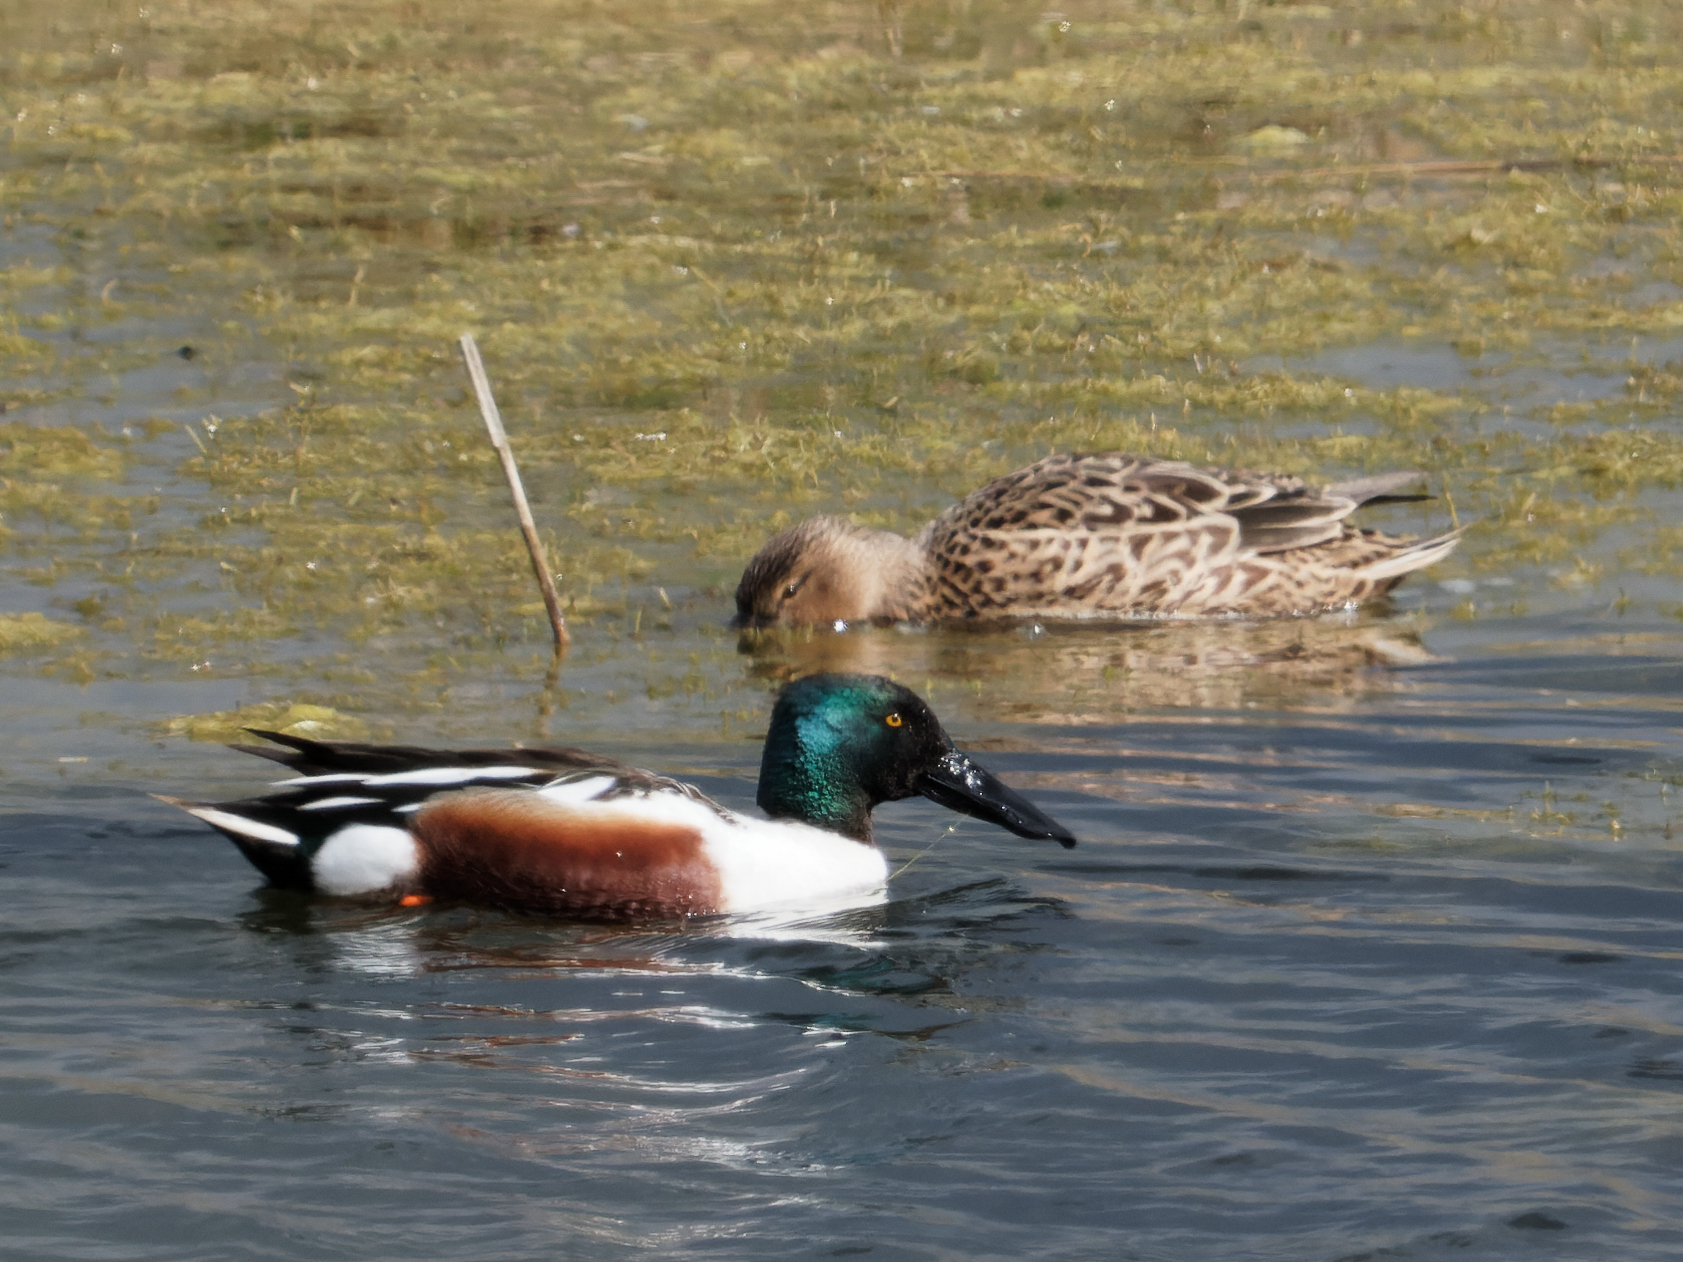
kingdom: Animalia
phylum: Chordata
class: Aves
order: Anseriformes
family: Anatidae
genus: Spatula
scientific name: Spatula clypeata
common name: Northern shoveler
